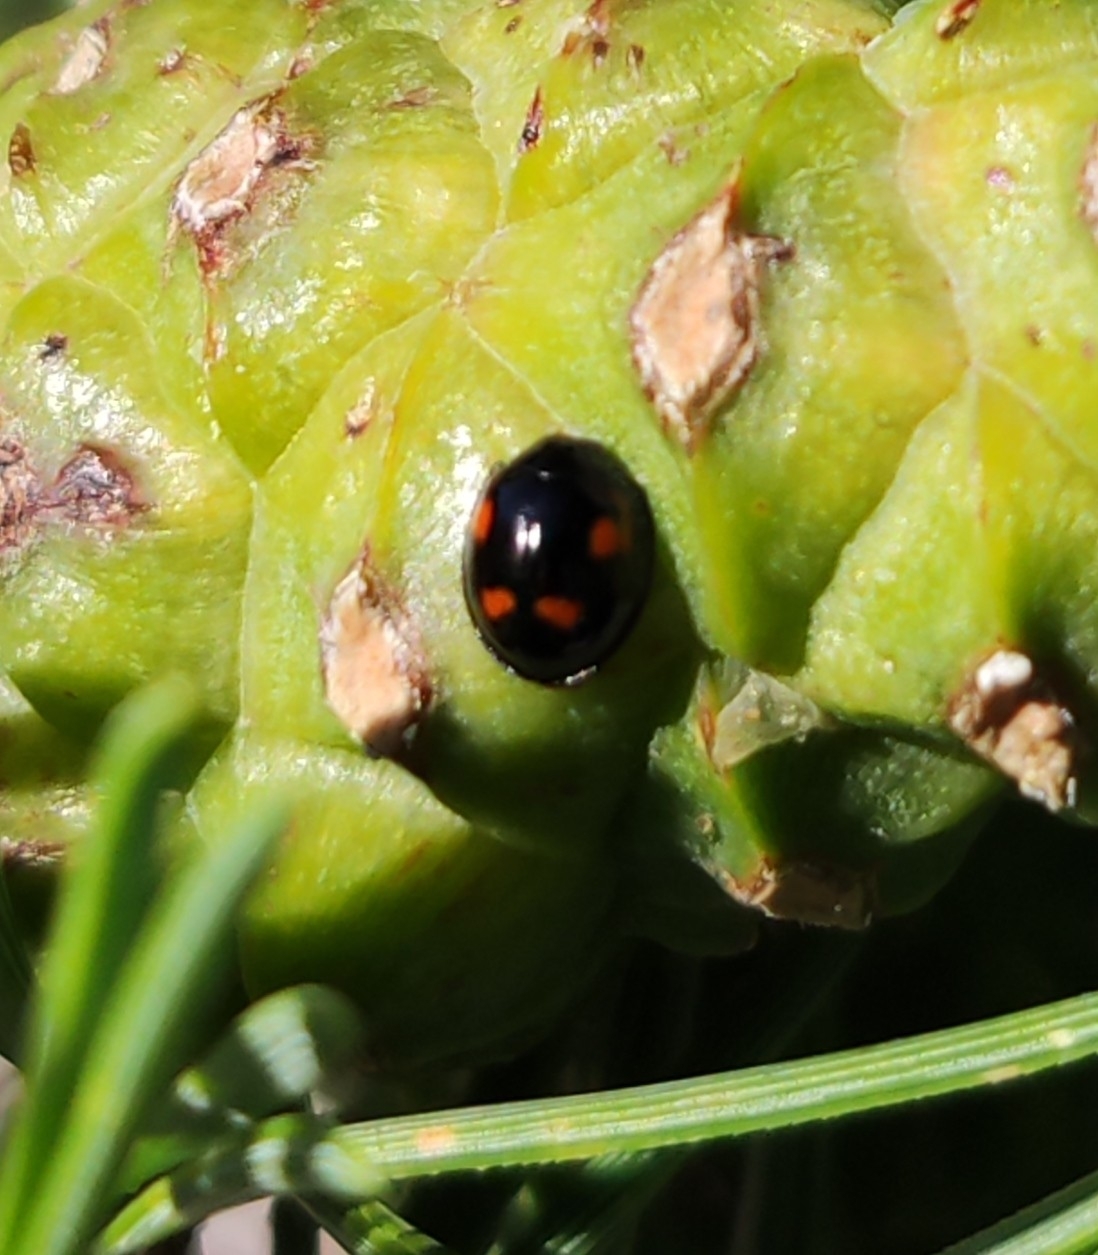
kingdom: Animalia
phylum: Arthropoda
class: Insecta
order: Coleoptera
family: Coccinellidae
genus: Brumus
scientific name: Brumus quadripustulatus
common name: Ladybird beetle
